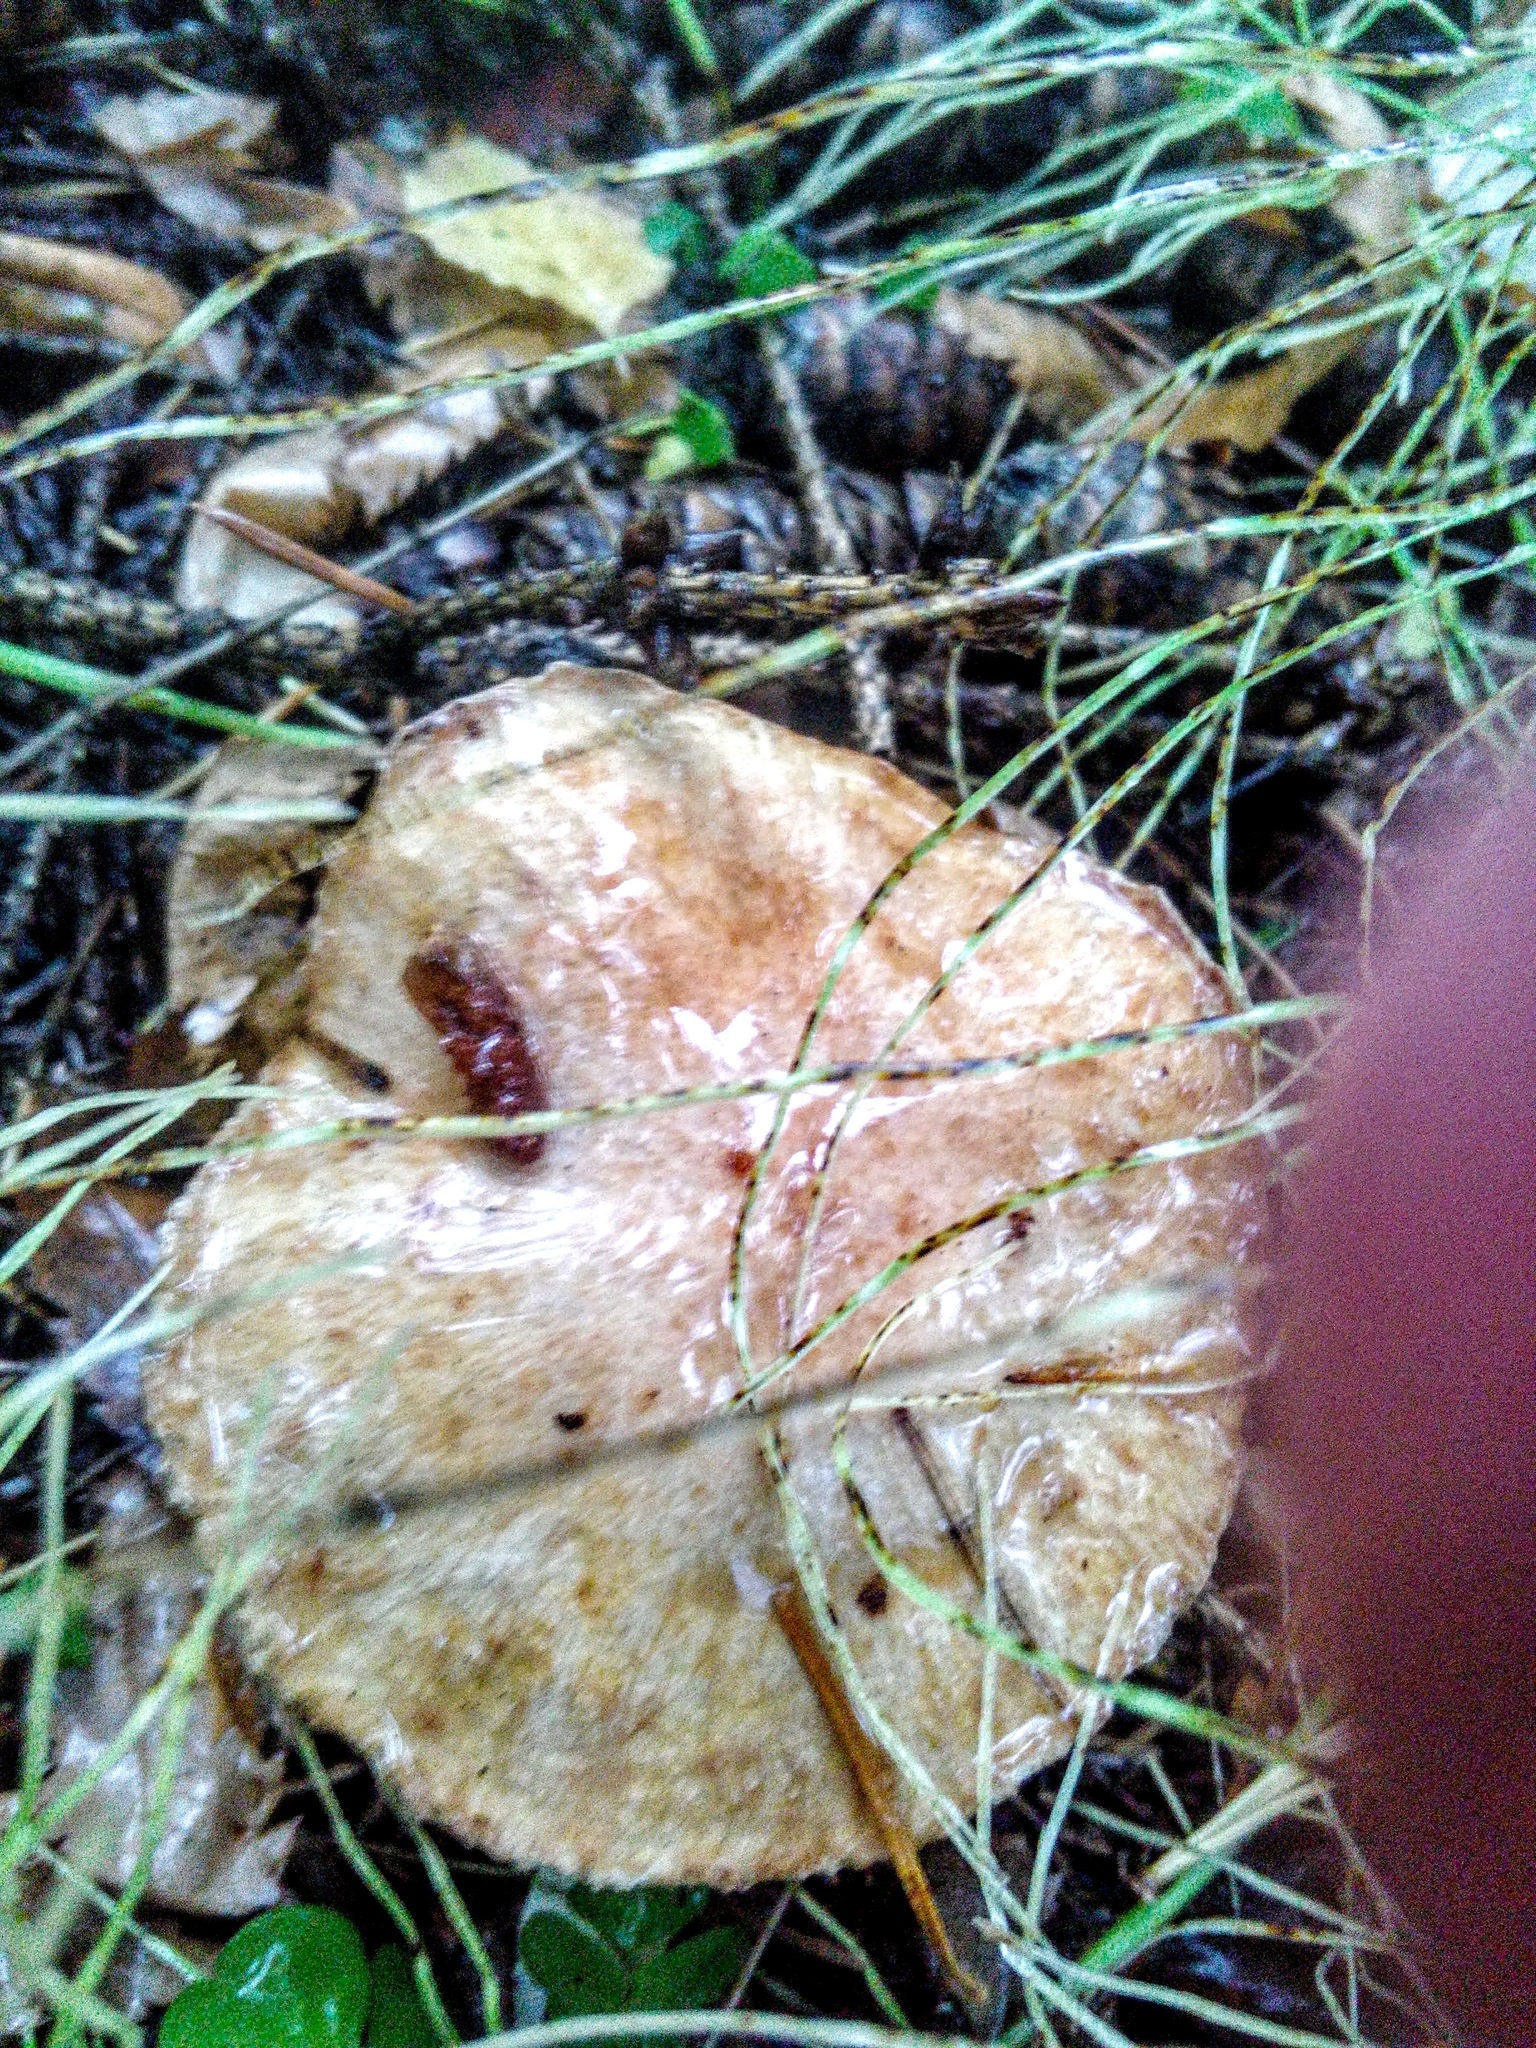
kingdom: Fungi
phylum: Basidiomycota
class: Agaricomycetes
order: Boletales
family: Suillaceae
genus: Suillus
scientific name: Suillus acidus
